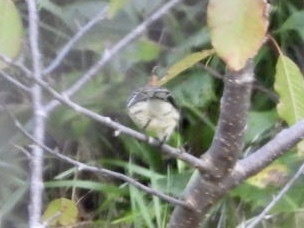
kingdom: Animalia
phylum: Chordata
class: Aves
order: Passeriformes
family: Parulidae
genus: Setophaga
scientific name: Setophaga coronata
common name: Myrtle warbler
